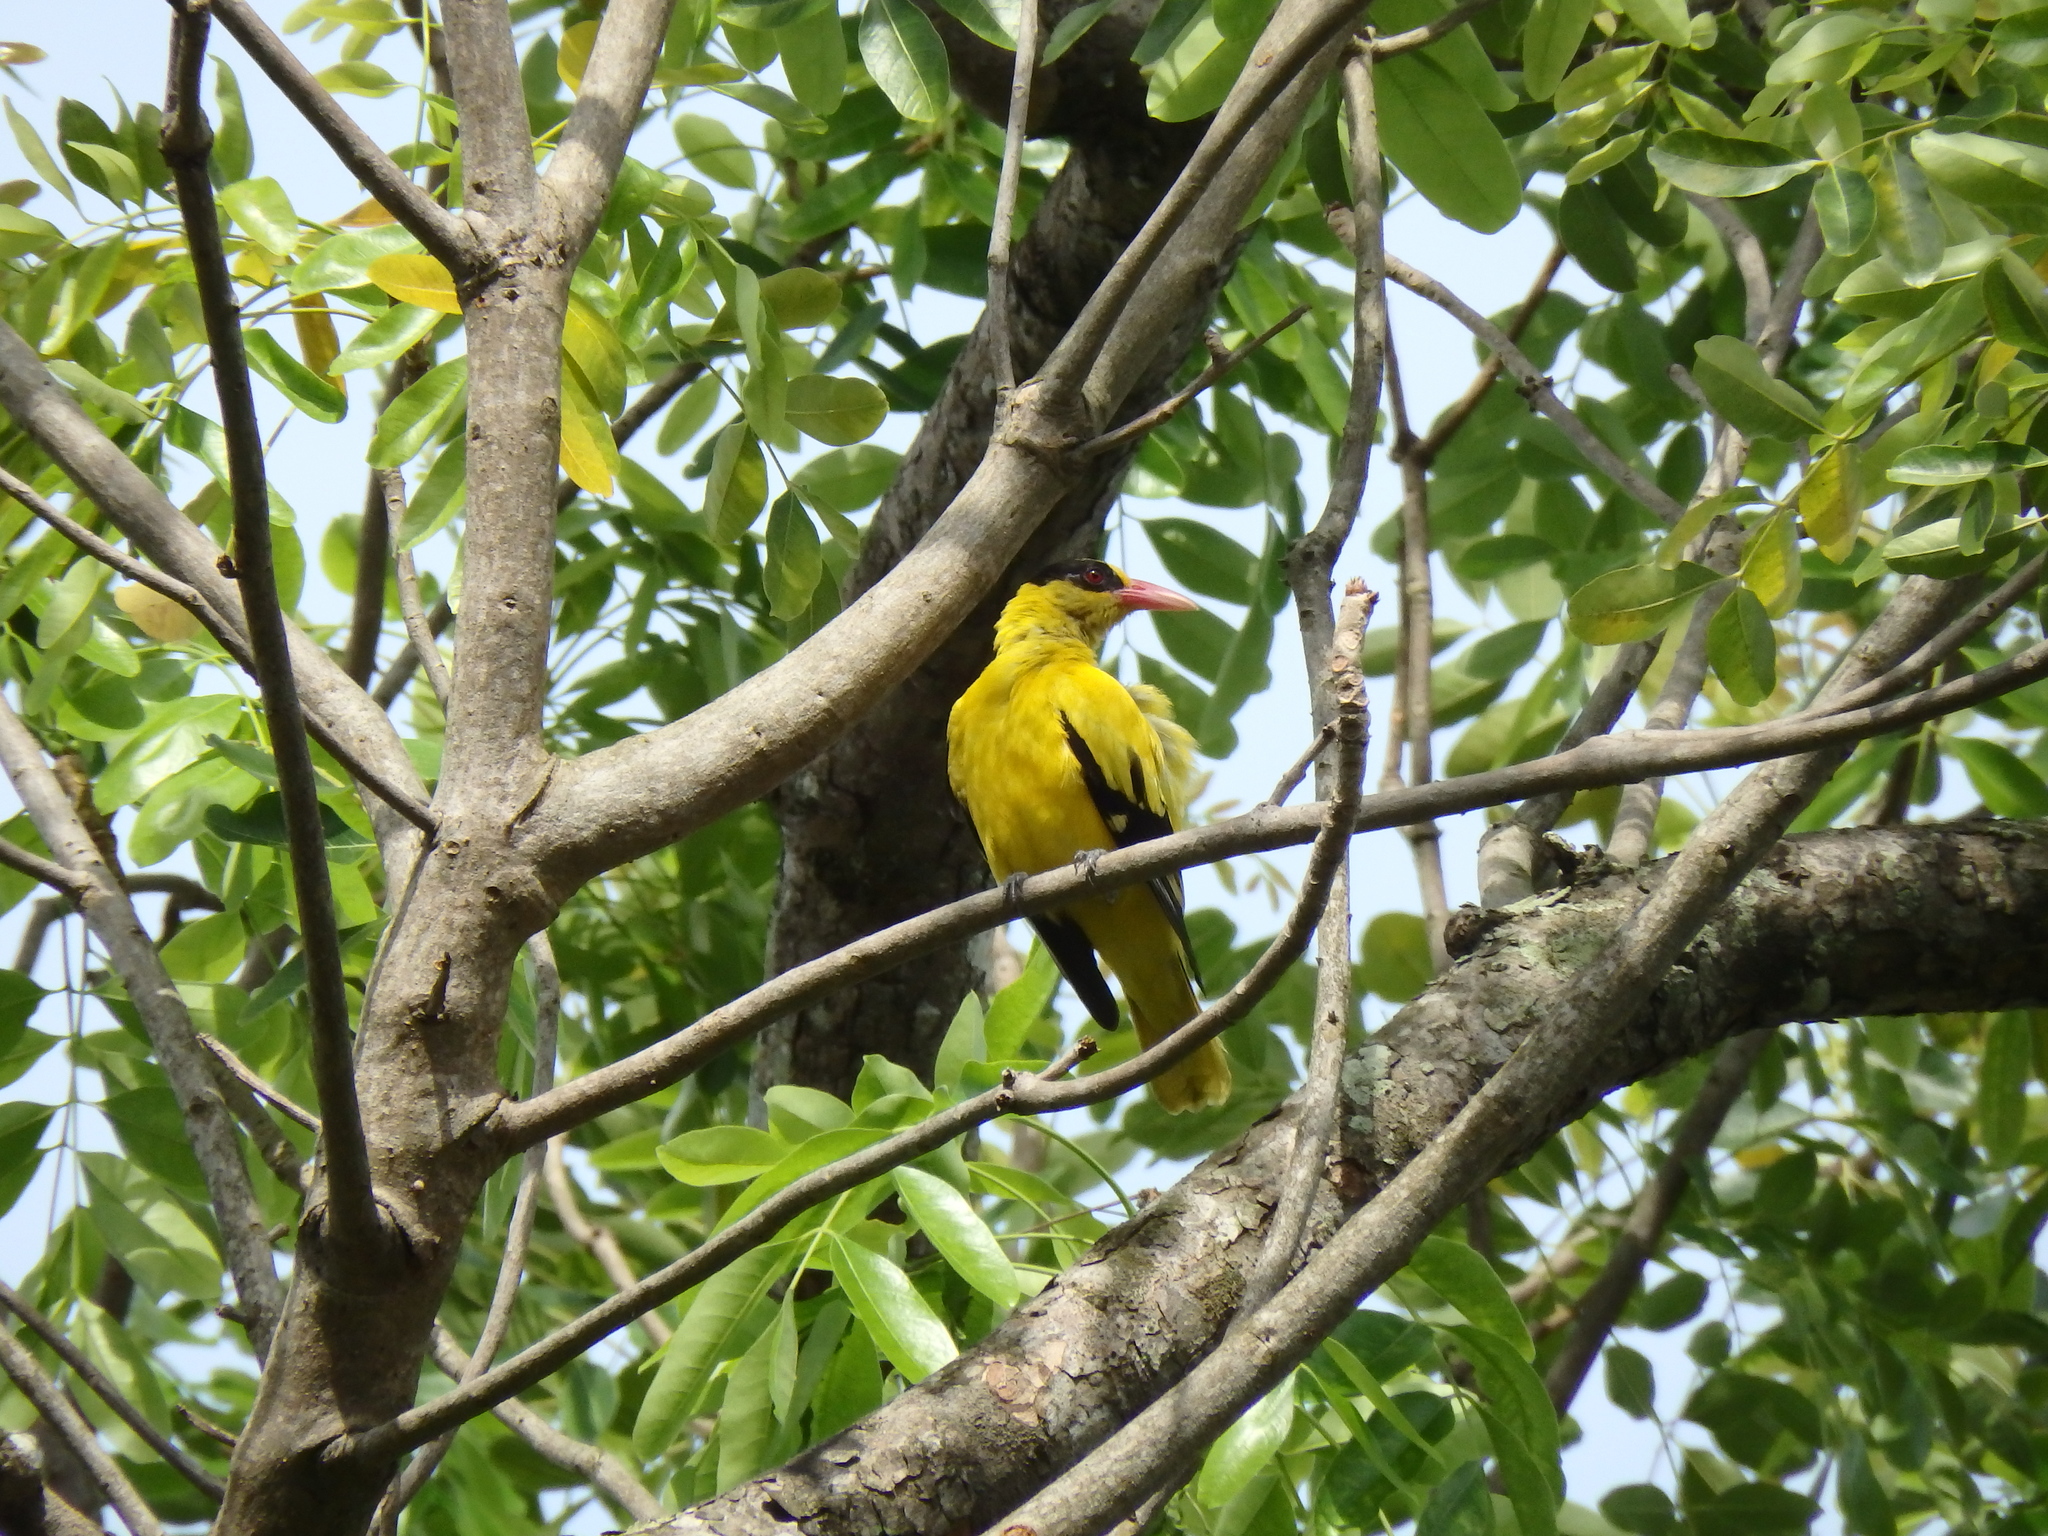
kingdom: Animalia
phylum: Chordata
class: Aves
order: Passeriformes
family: Oriolidae
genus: Oriolus
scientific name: Oriolus chinensis
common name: Black-naped oriole
